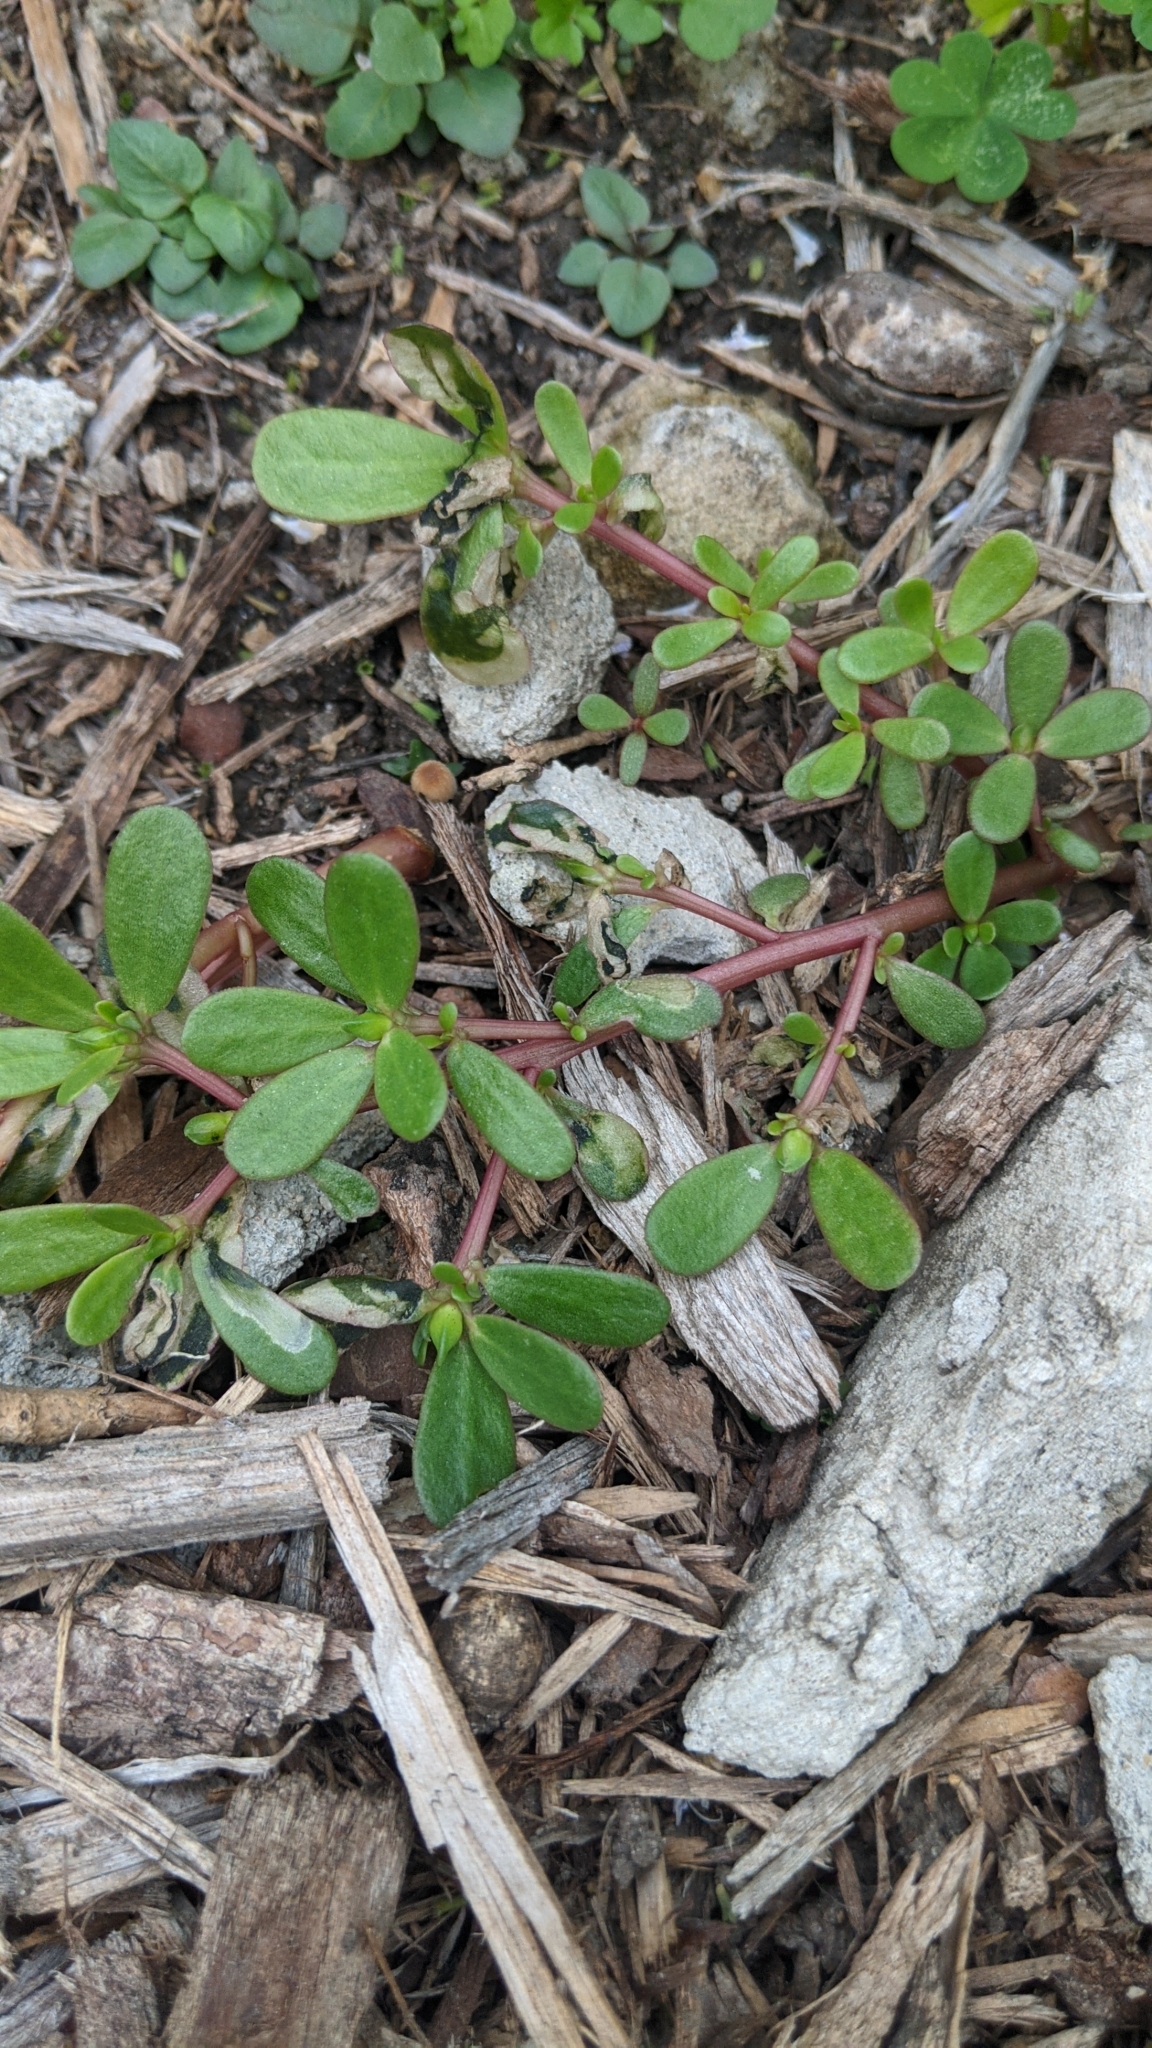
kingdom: Plantae
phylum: Tracheophyta
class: Magnoliopsida
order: Caryophyllales
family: Portulacaceae
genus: Portulaca
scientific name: Portulaca oleracea
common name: Common purslane
